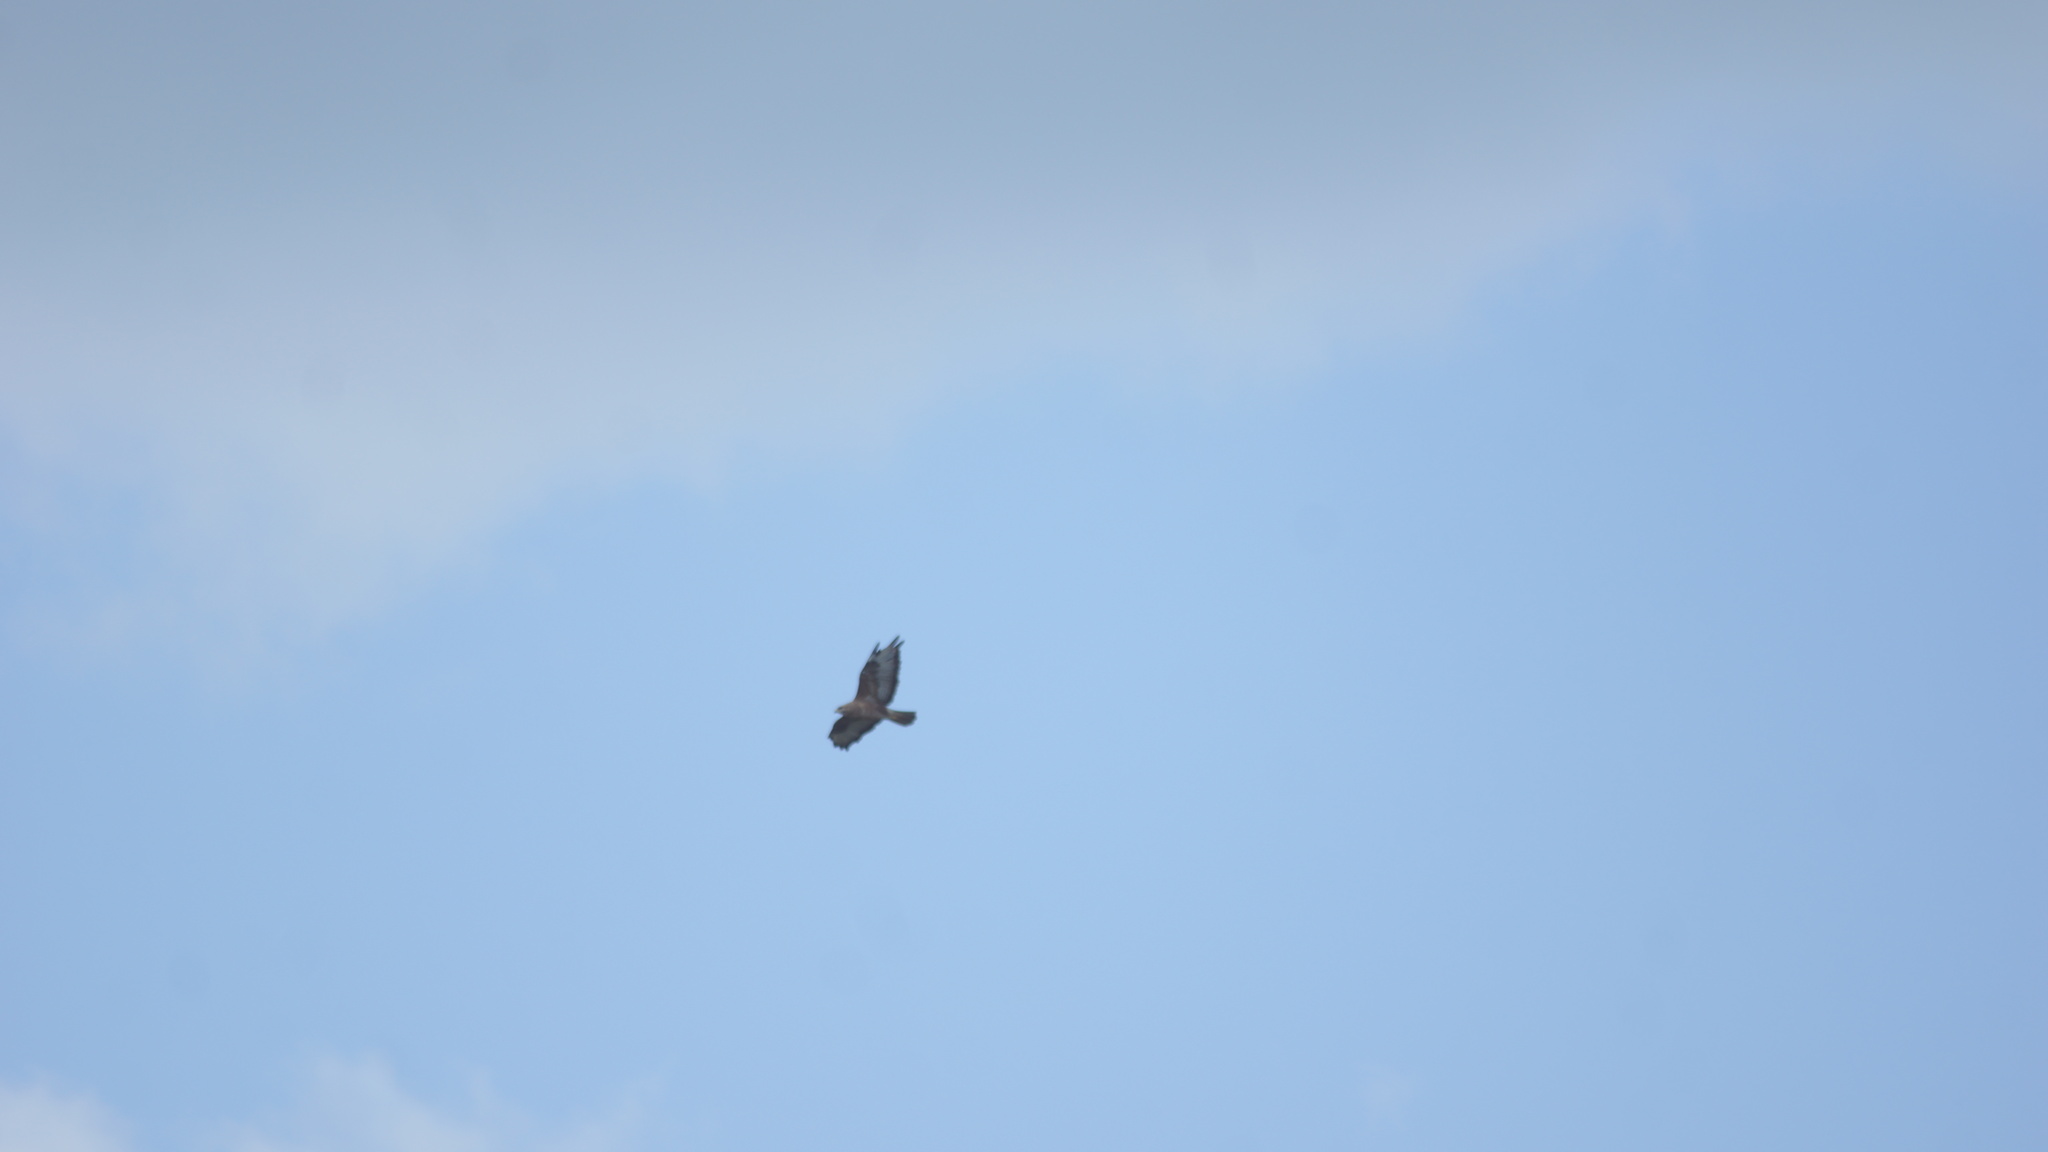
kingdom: Animalia
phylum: Chordata
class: Aves
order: Accipitriformes
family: Accipitridae
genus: Buteo
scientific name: Buteo buteo
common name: Common buzzard
